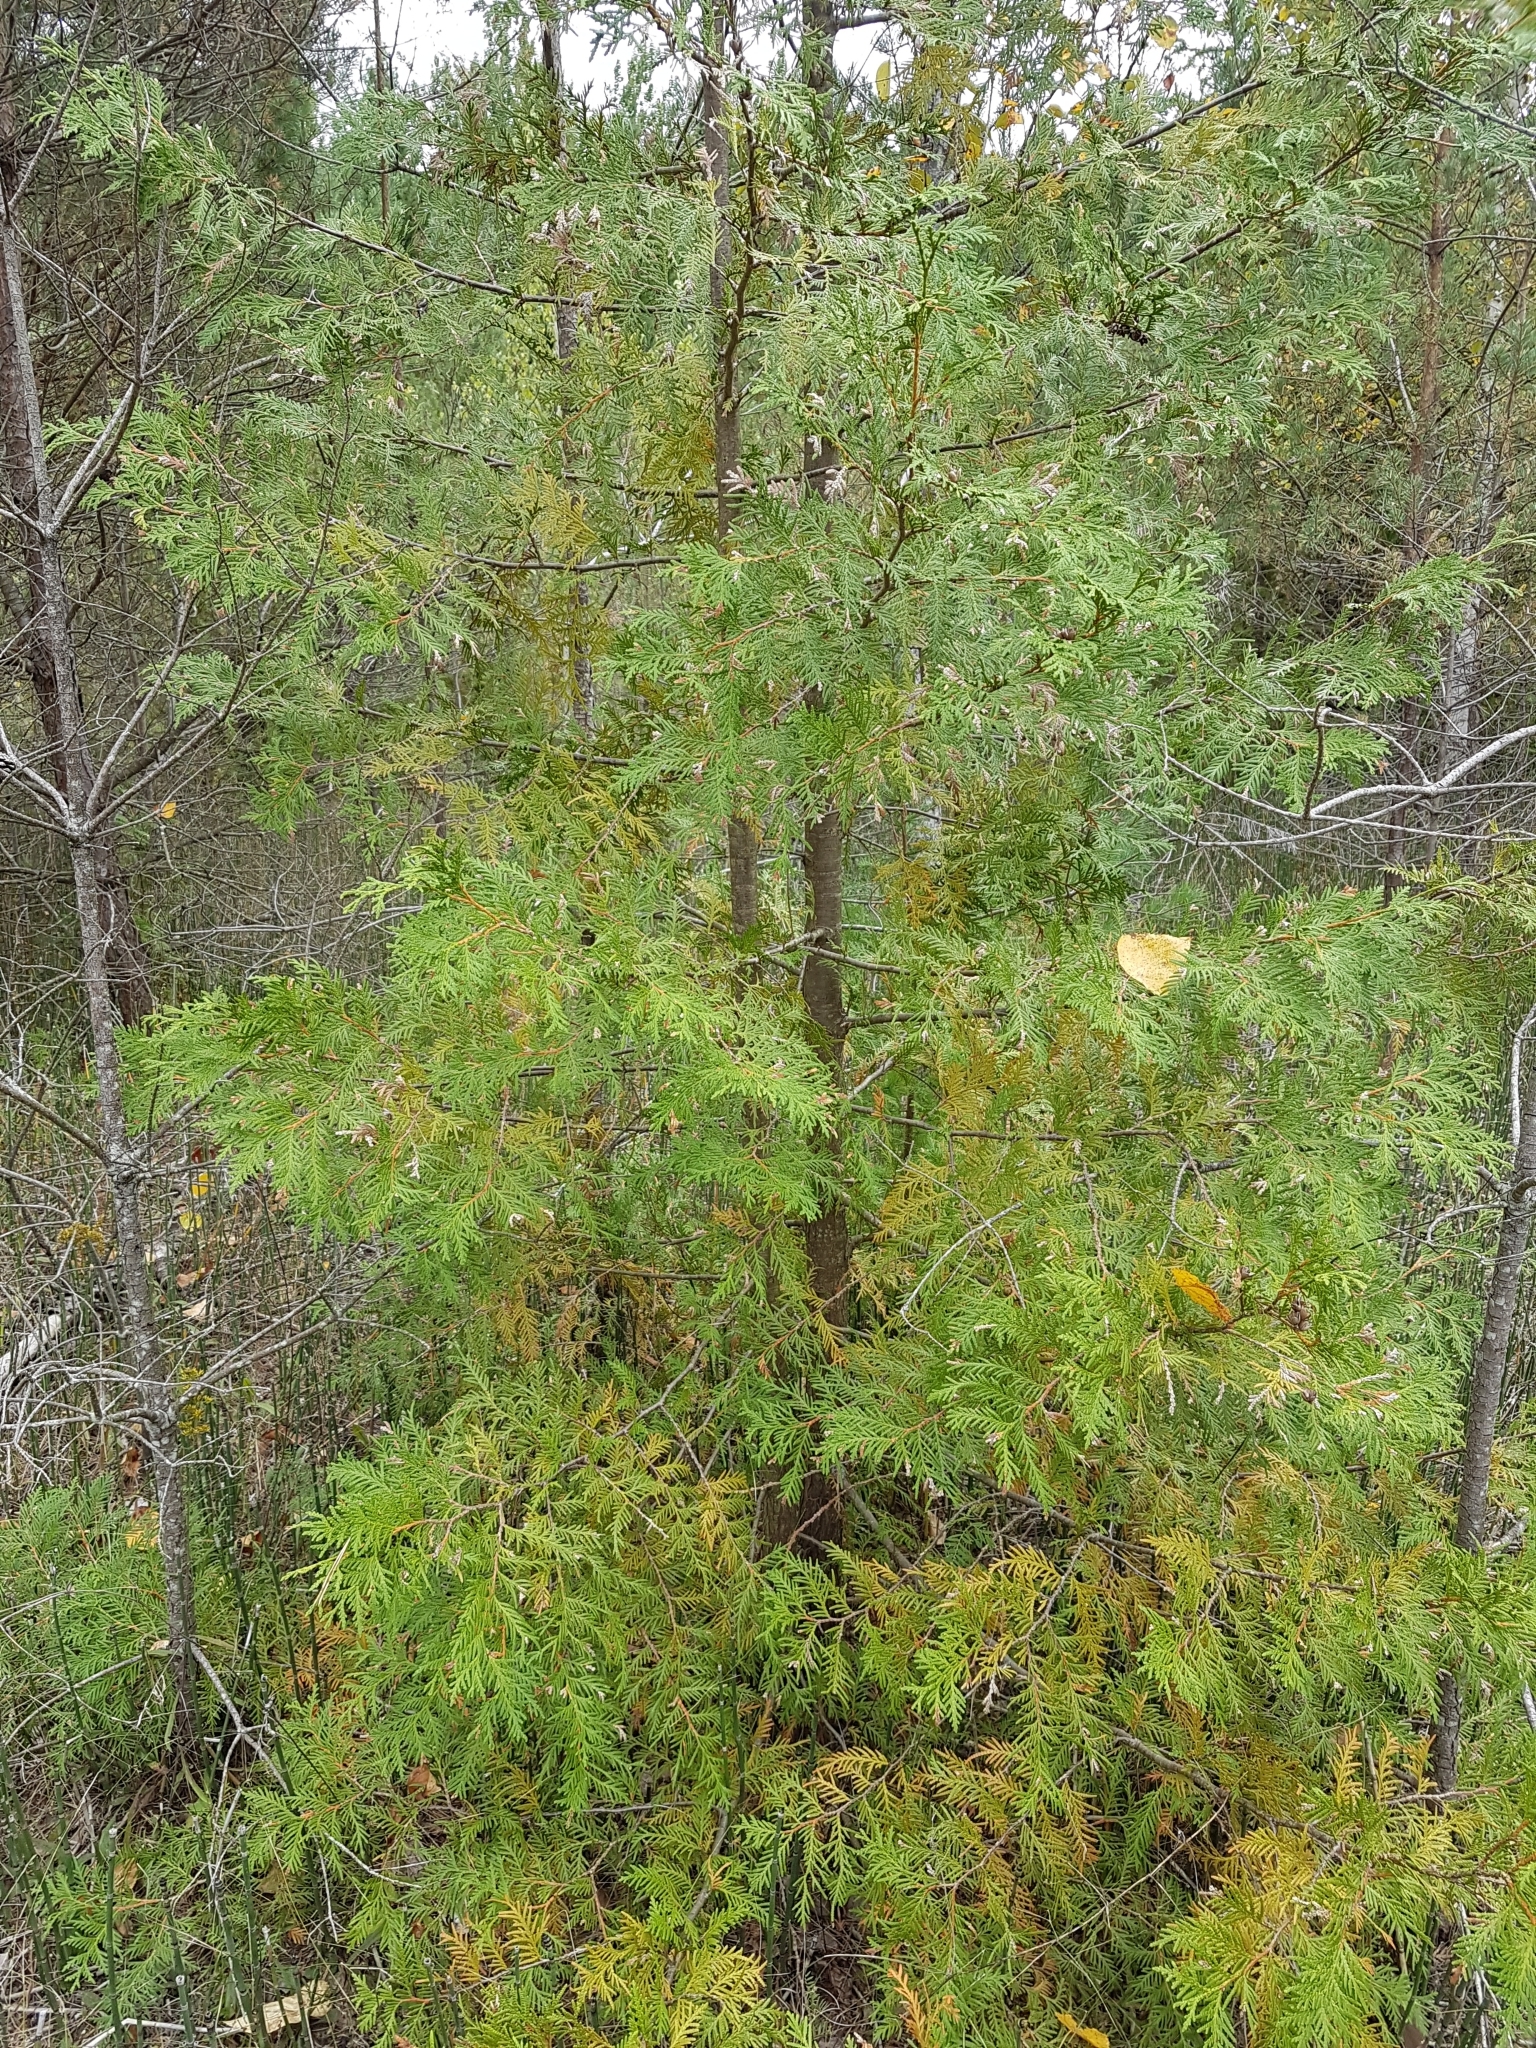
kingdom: Plantae
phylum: Tracheophyta
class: Pinopsida
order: Pinales
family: Cupressaceae
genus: Thuja
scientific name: Thuja occidentalis
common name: Northern white-cedar
